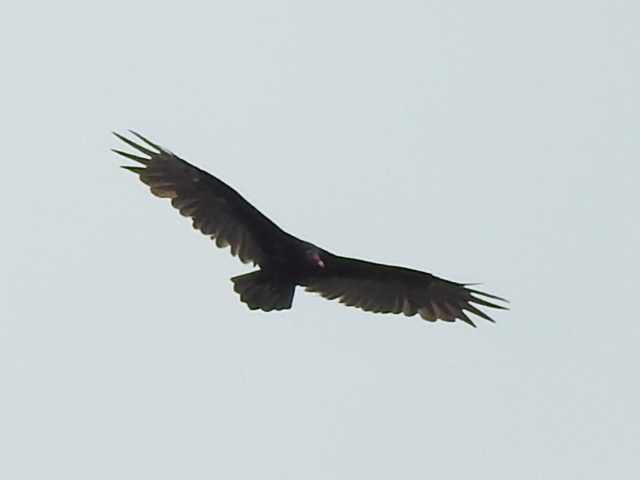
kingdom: Animalia
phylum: Chordata
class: Aves
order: Accipitriformes
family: Cathartidae
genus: Cathartes
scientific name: Cathartes aura
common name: Turkey vulture
